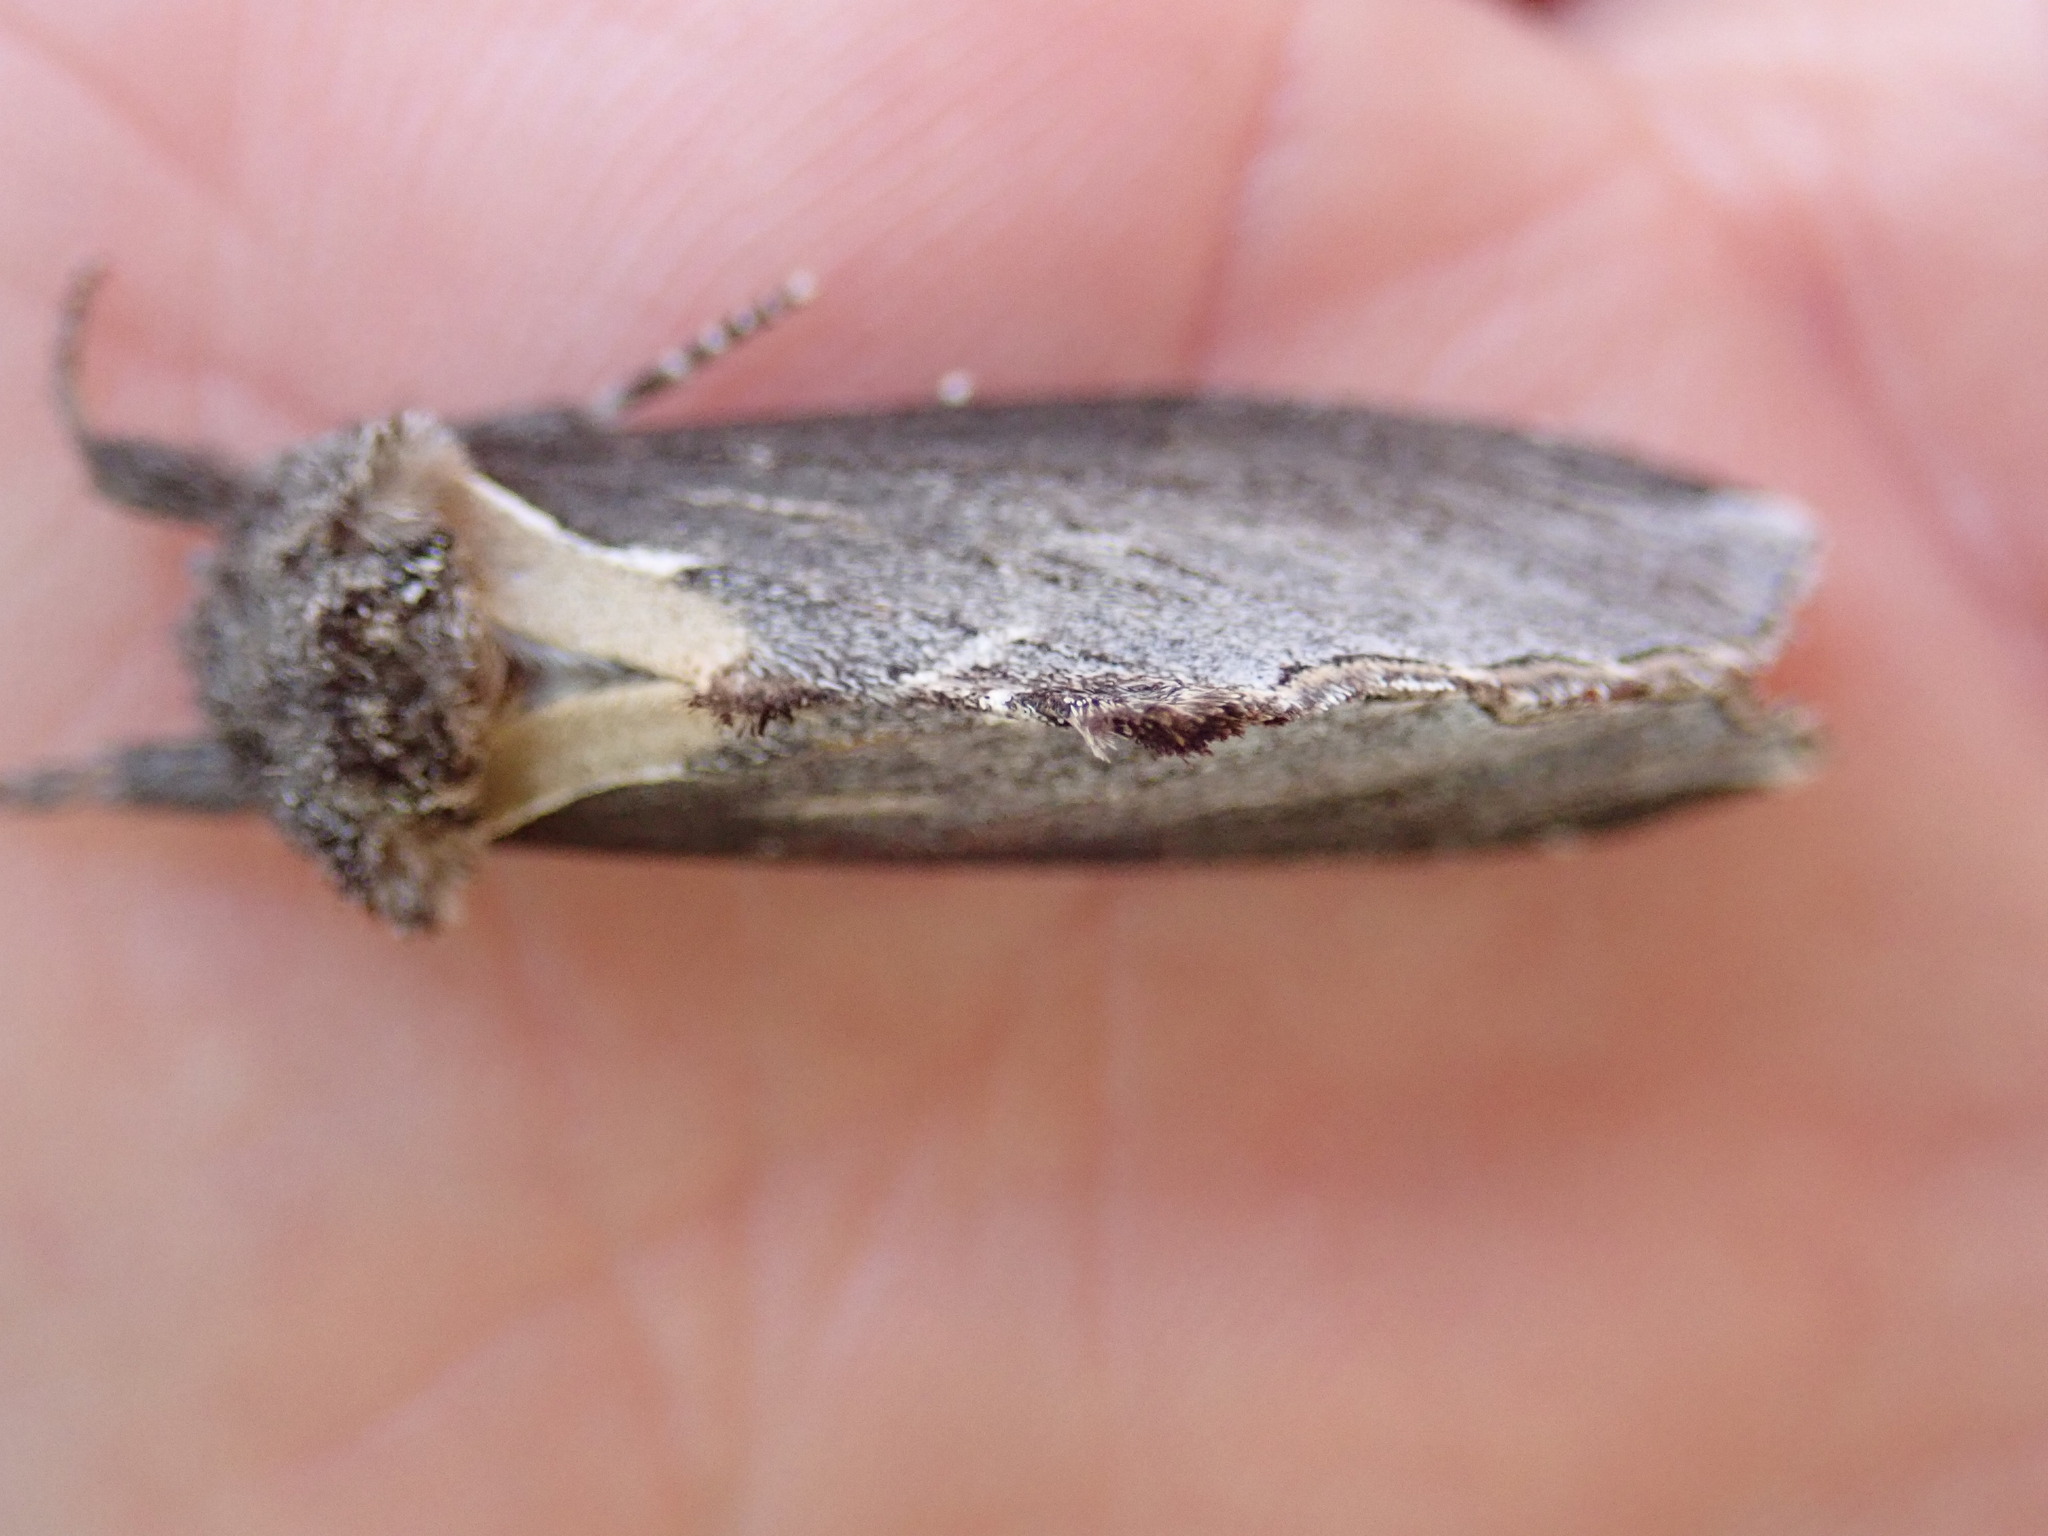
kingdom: Animalia
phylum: Arthropoda
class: Insecta
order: Lepidoptera
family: Notodontidae
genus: Pheosidea
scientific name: Pheosidea elegans
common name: Elegant prominent
